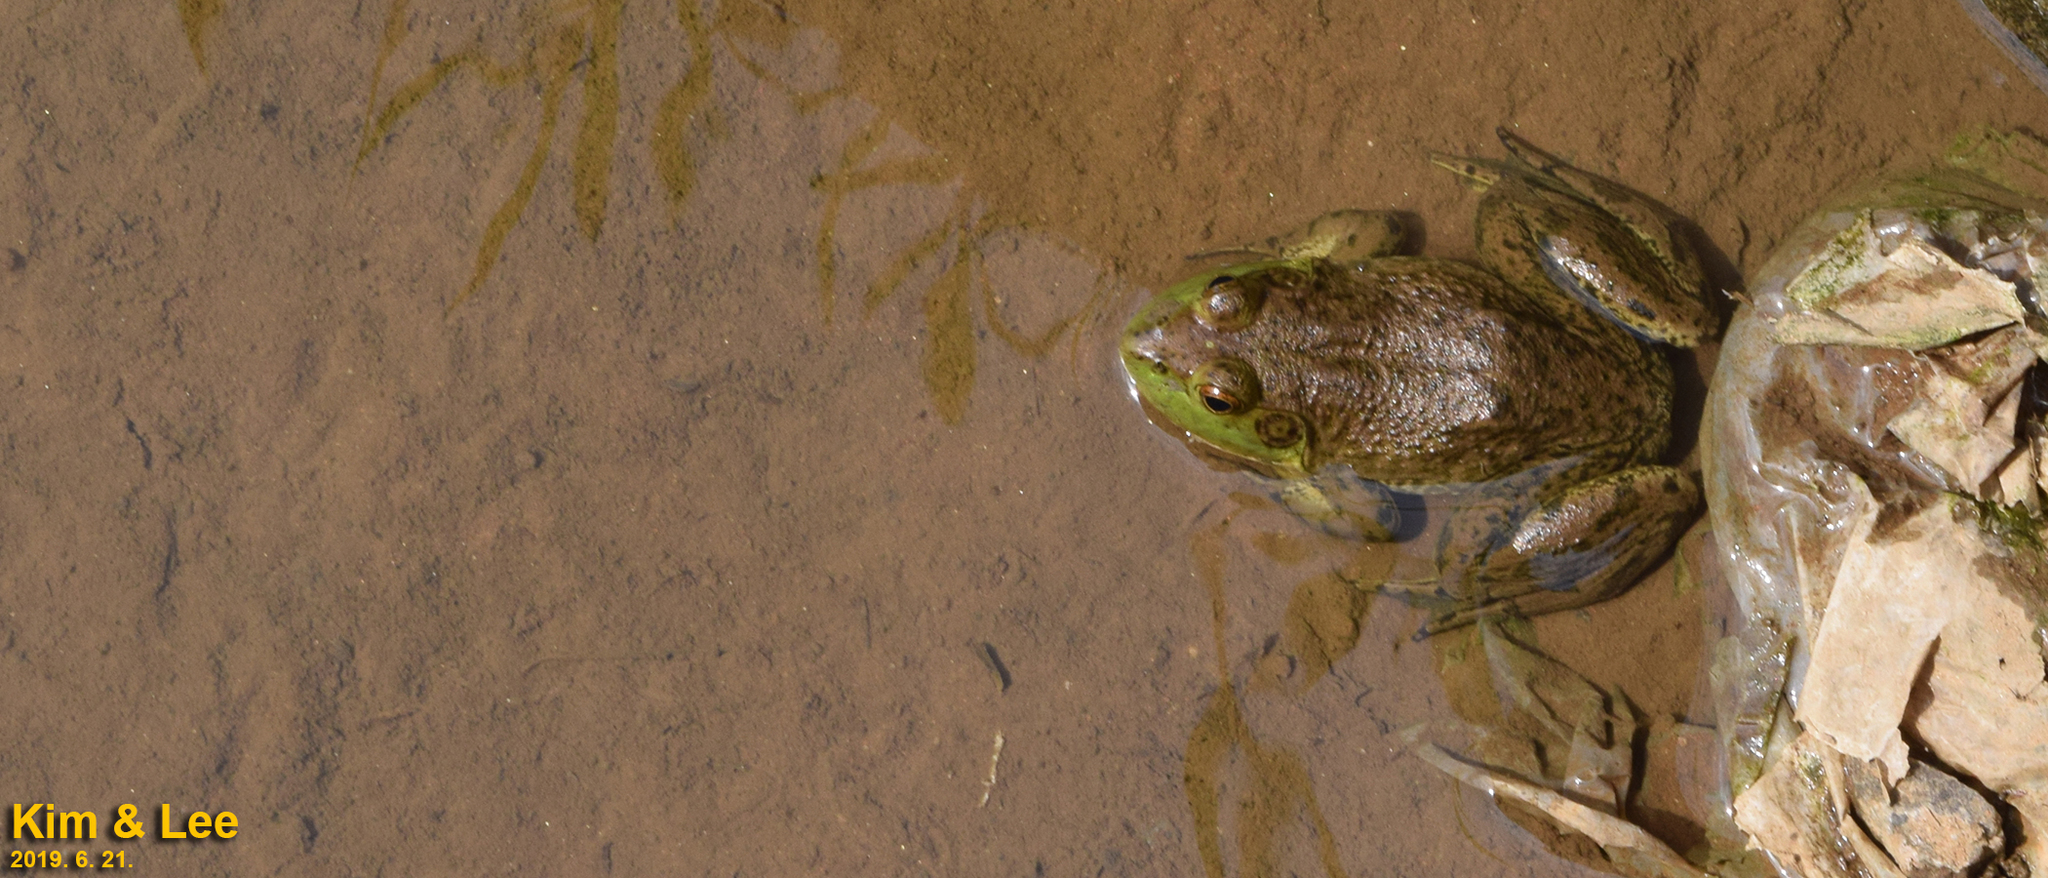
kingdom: Animalia
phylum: Chordata
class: Amphibia
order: Anura
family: Ranidae
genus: Lithobates
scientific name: Lithobates catesbeianus
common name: American bullfrog
